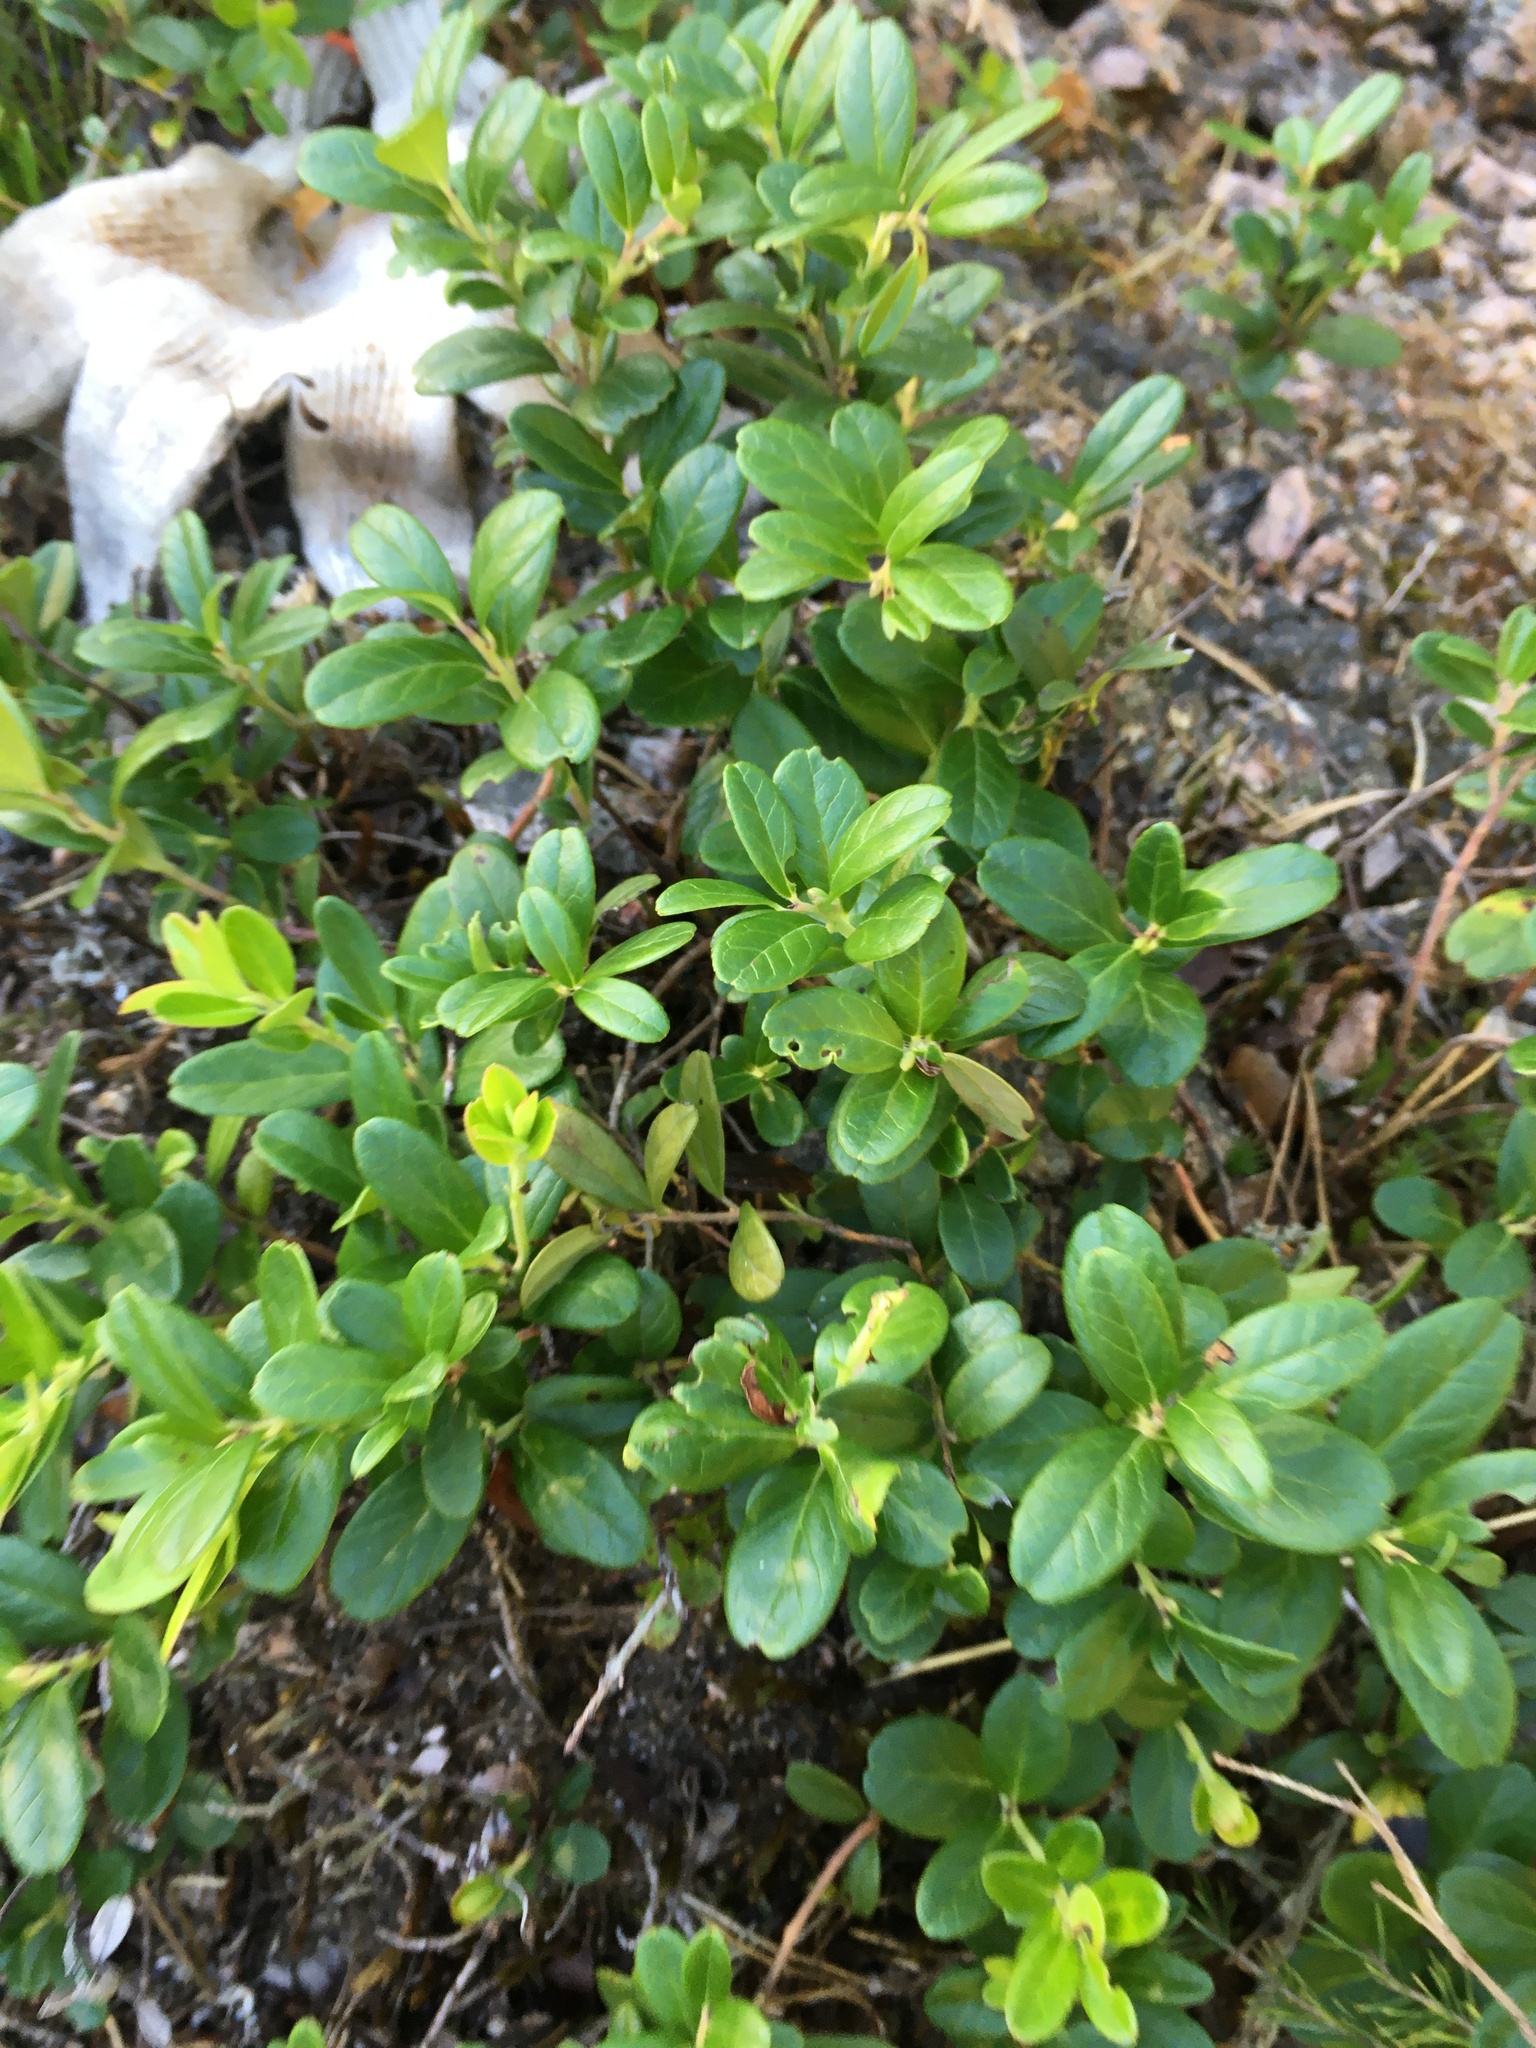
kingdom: Plantae
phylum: Tracheophyta
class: Magnoliopsida
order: Ericales
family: Ericaceae
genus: Vaccinium
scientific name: Vaccinium vitis-idaea
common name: Cowberry
